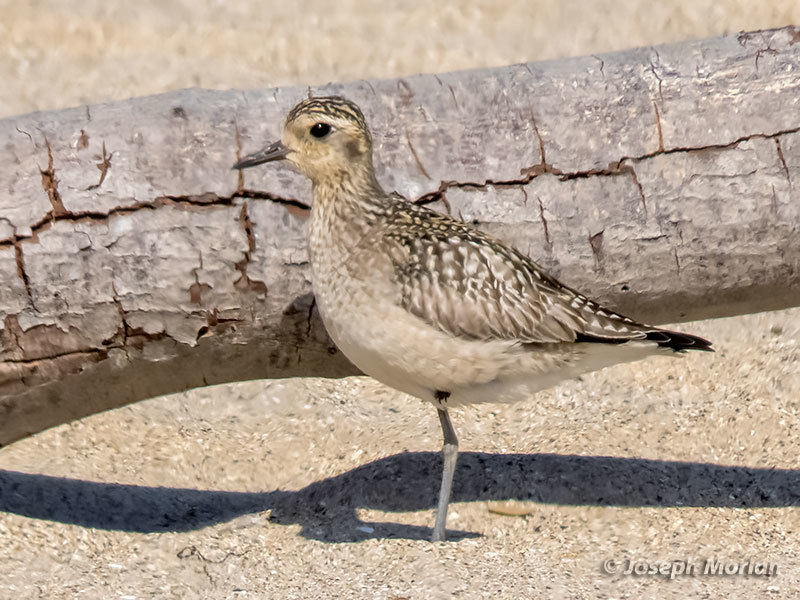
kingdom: Animalia
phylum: Chordata
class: Aves
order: Charadriiformes
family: Charadriidae
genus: Pluvialis
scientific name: Pluvialis fulva
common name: Pacific golden plover
